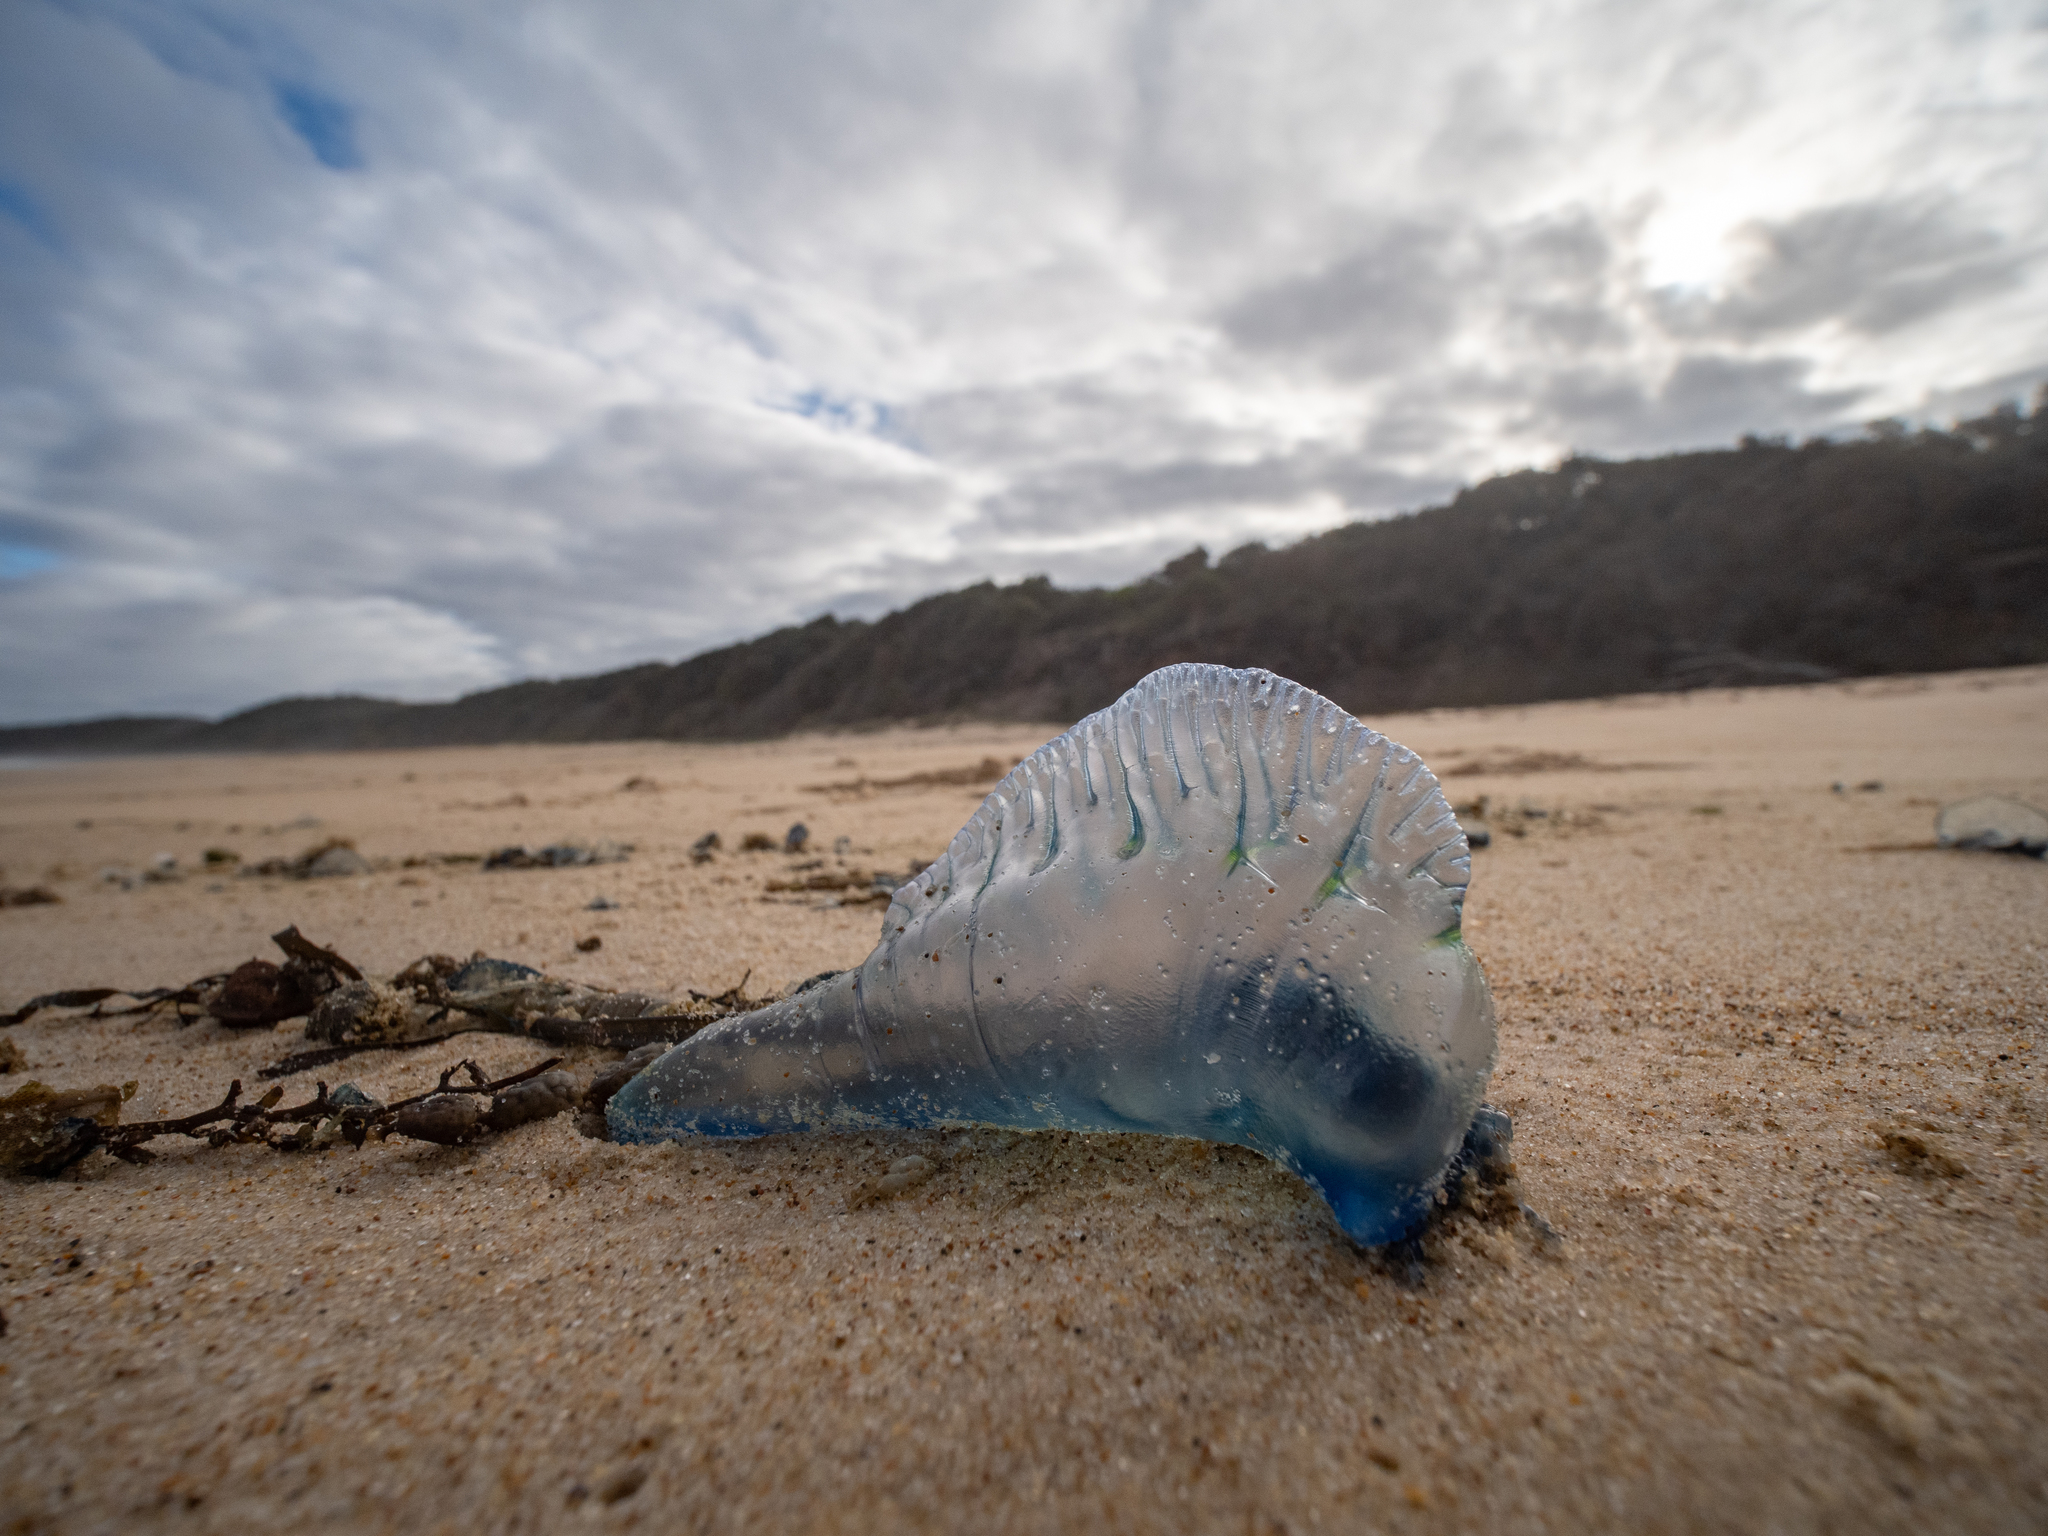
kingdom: Animalia
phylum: Cnidaria
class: Hydrozoa
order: Siphonophorae
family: Physaliidae
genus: Physalia
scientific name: Physalia physalis
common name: Portuguese man-of-war
